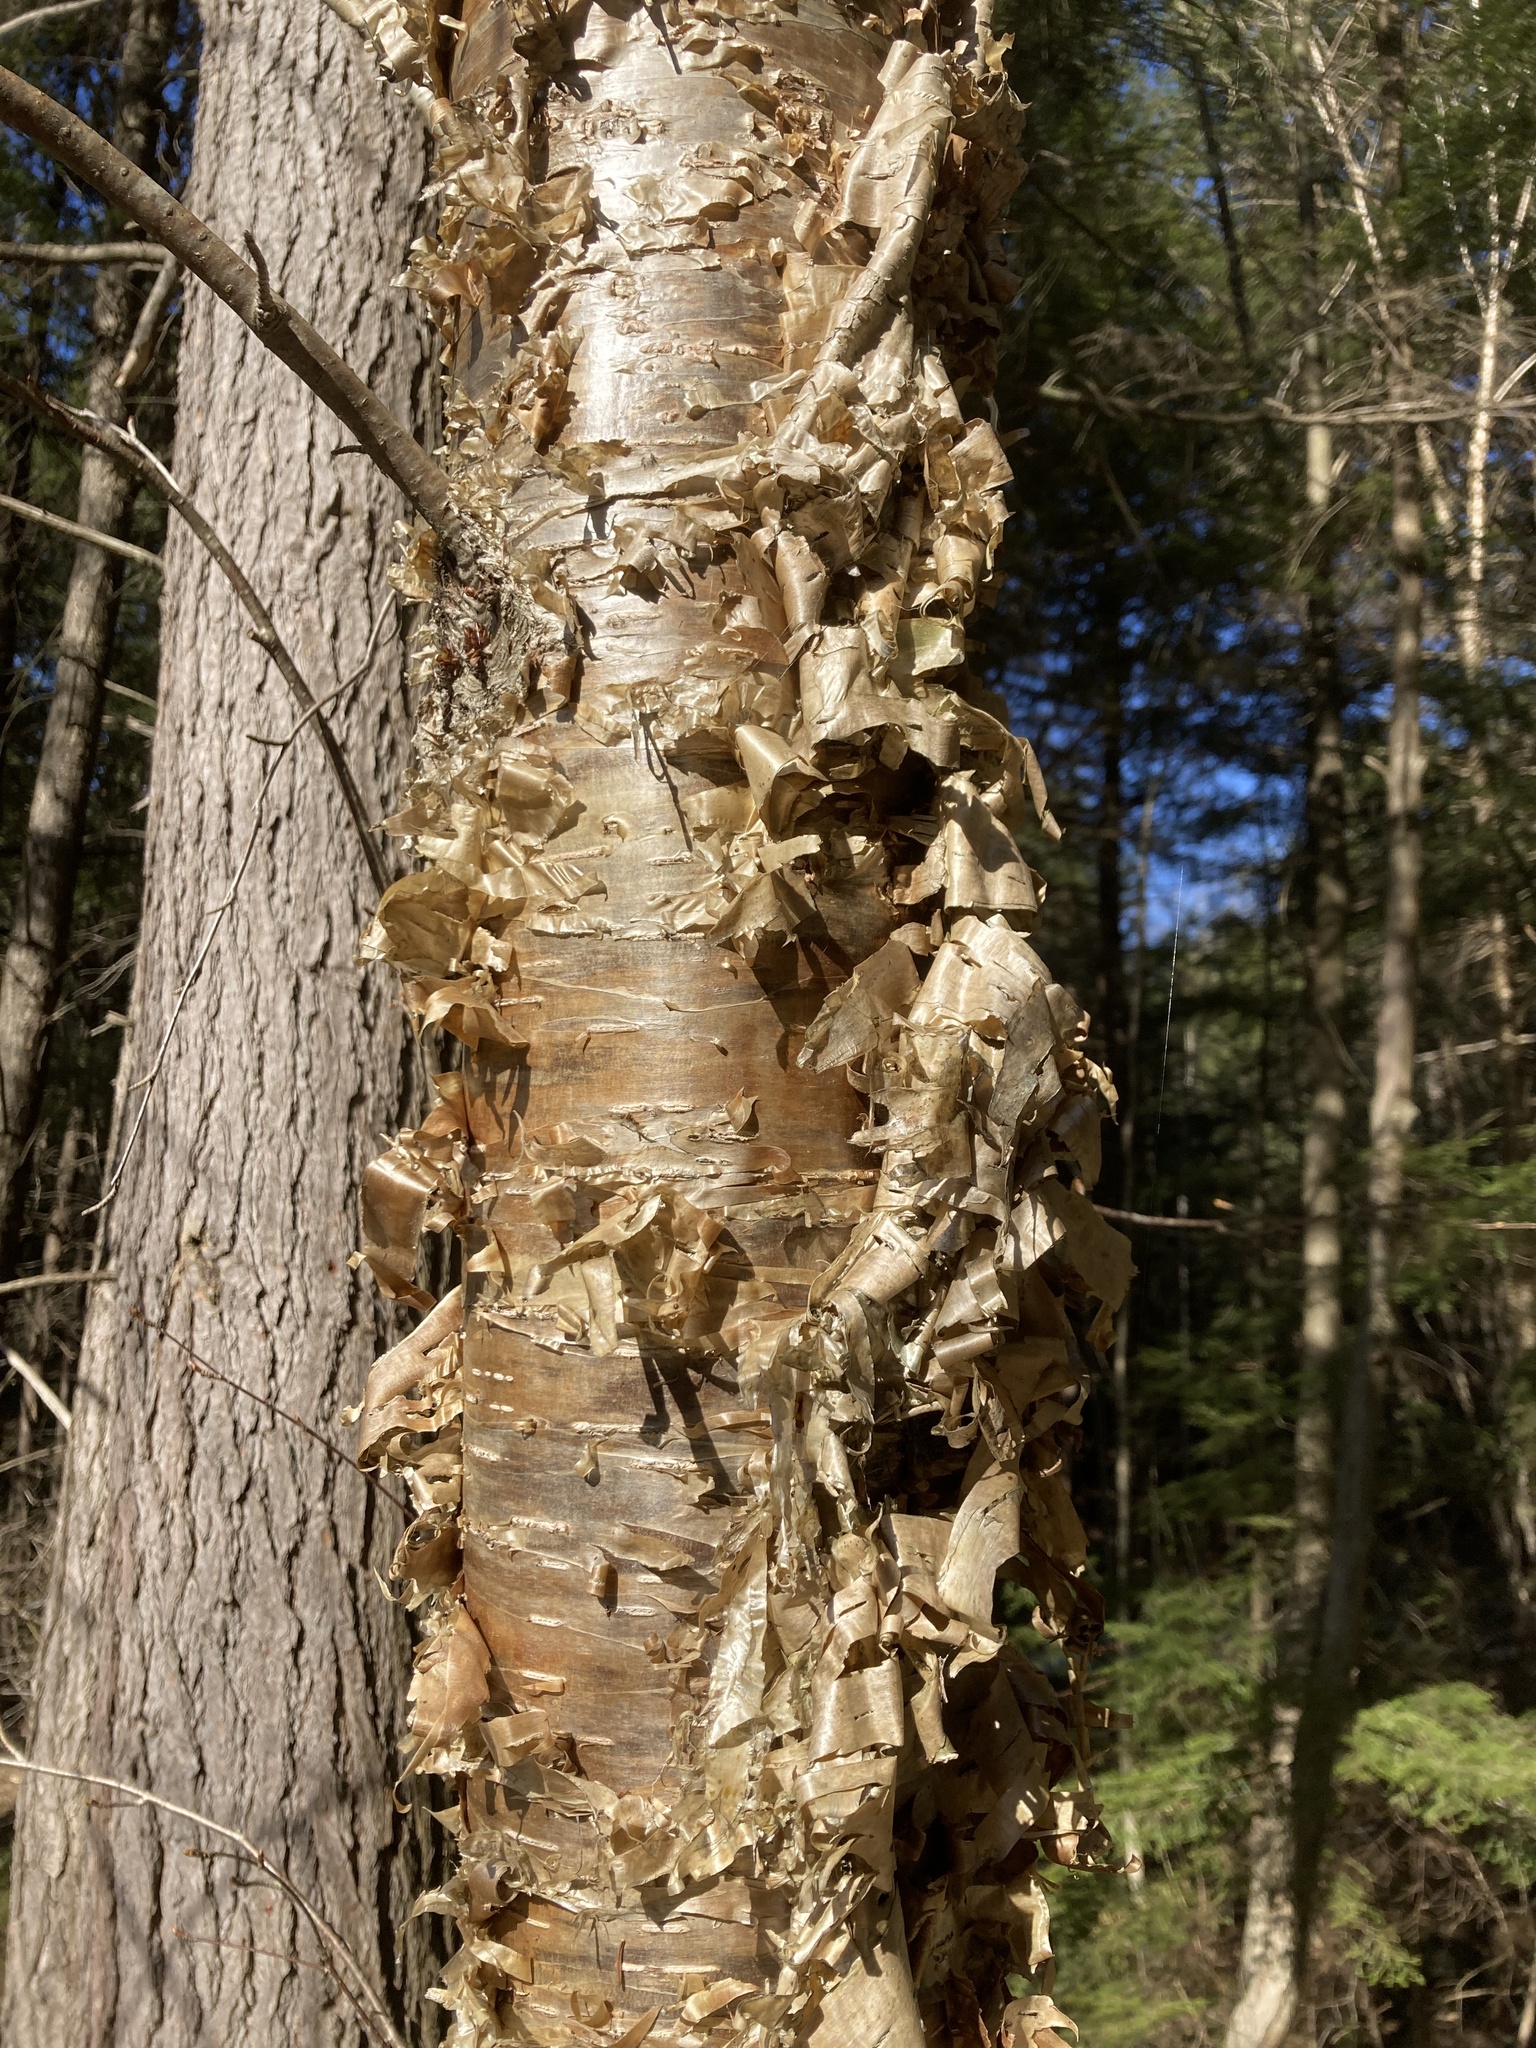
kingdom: Plantae
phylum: Tracheophyta
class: Magnoliopsida
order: Fagales
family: Betulaceae
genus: Betula
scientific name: Betula alleghaniensis
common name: Yellow birch
